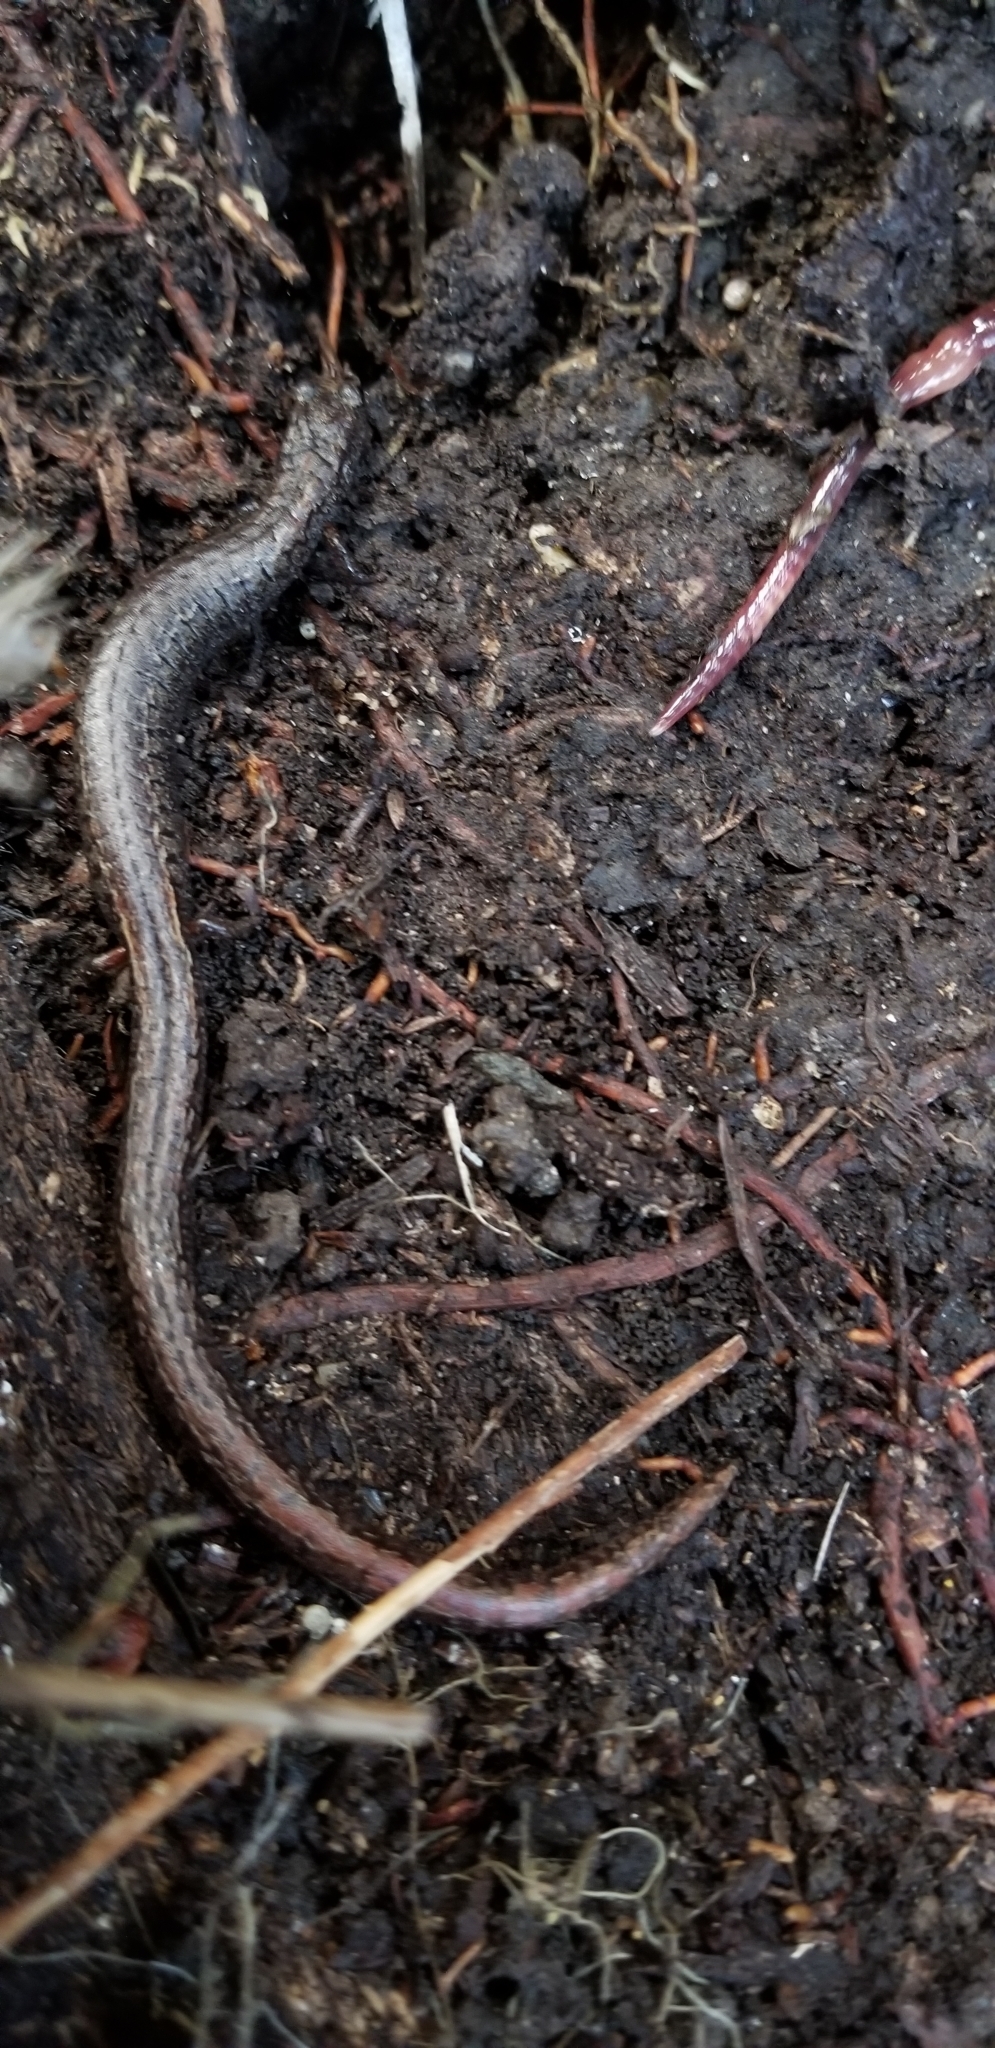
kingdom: Animalia
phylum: Chordata
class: Amphibia
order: Caudata
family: Plethodontidae
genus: Batrachoseps
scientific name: Batrachoseps attenuatus
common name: California slender salamander
